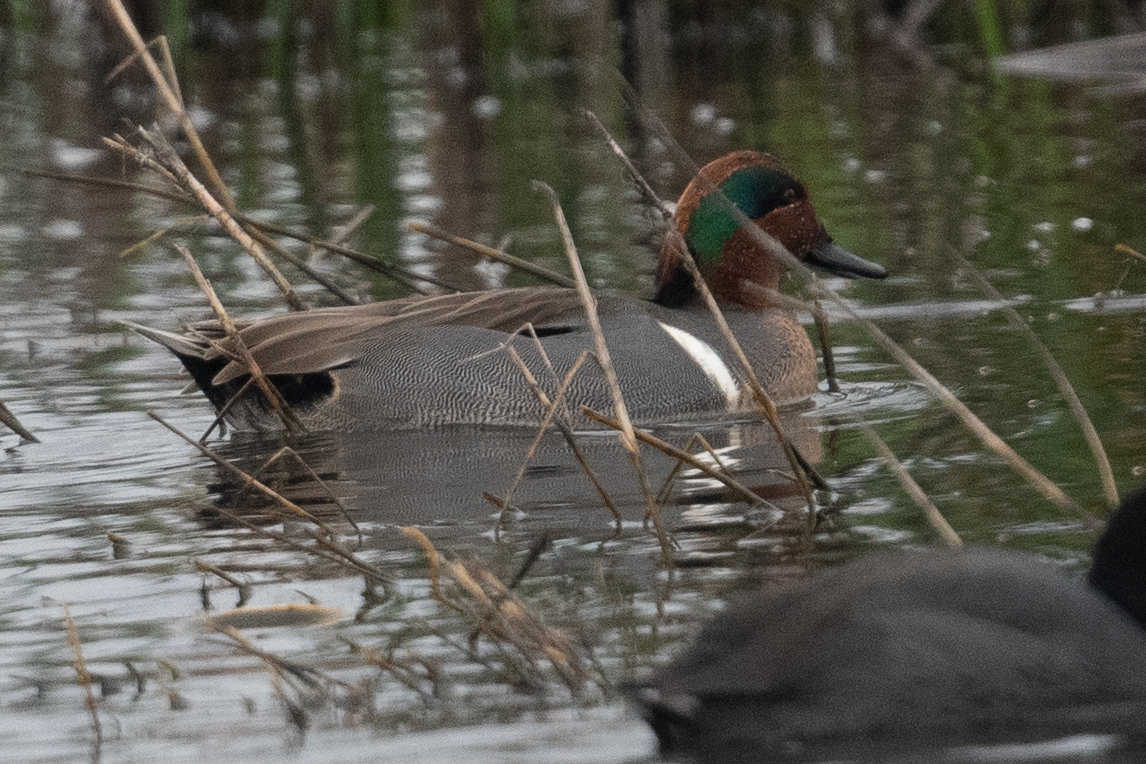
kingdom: Animalia
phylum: Chordata
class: Aves
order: Anseriformes
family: Anatidae
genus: Anas
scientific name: Anas crecca
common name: Eurasian teal
